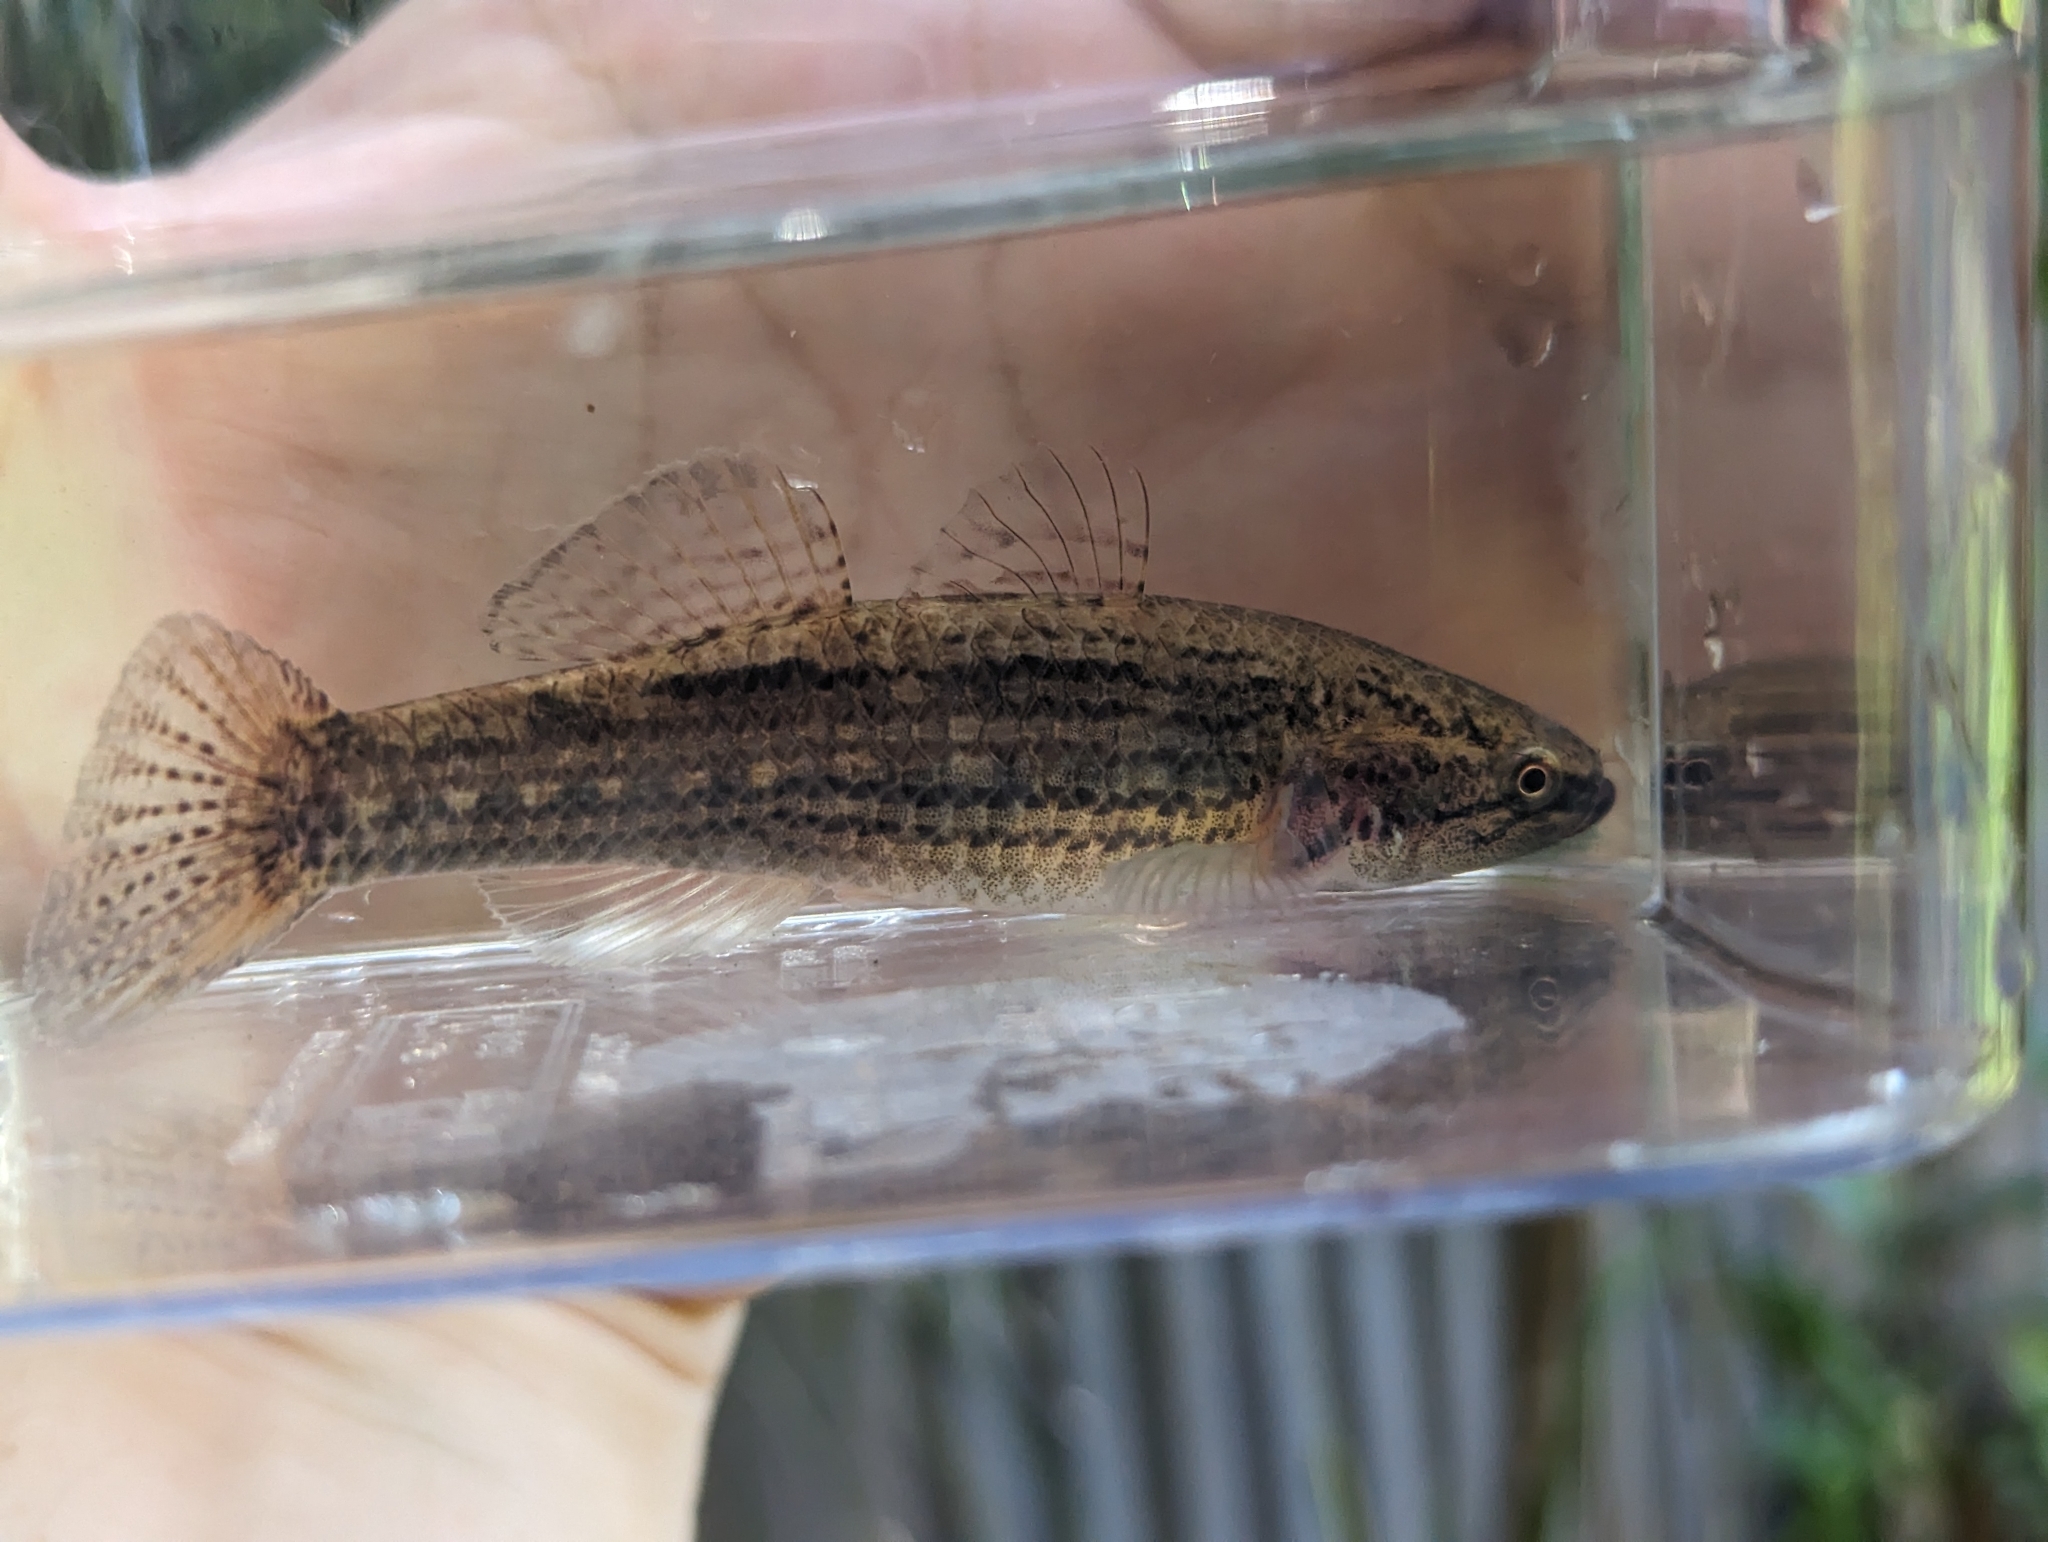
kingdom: Animalia
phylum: Chordata
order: Perciformes
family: Eleotridae
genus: Gobiomorphus
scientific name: Gobiomorphus australis
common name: Striped gudgeon
